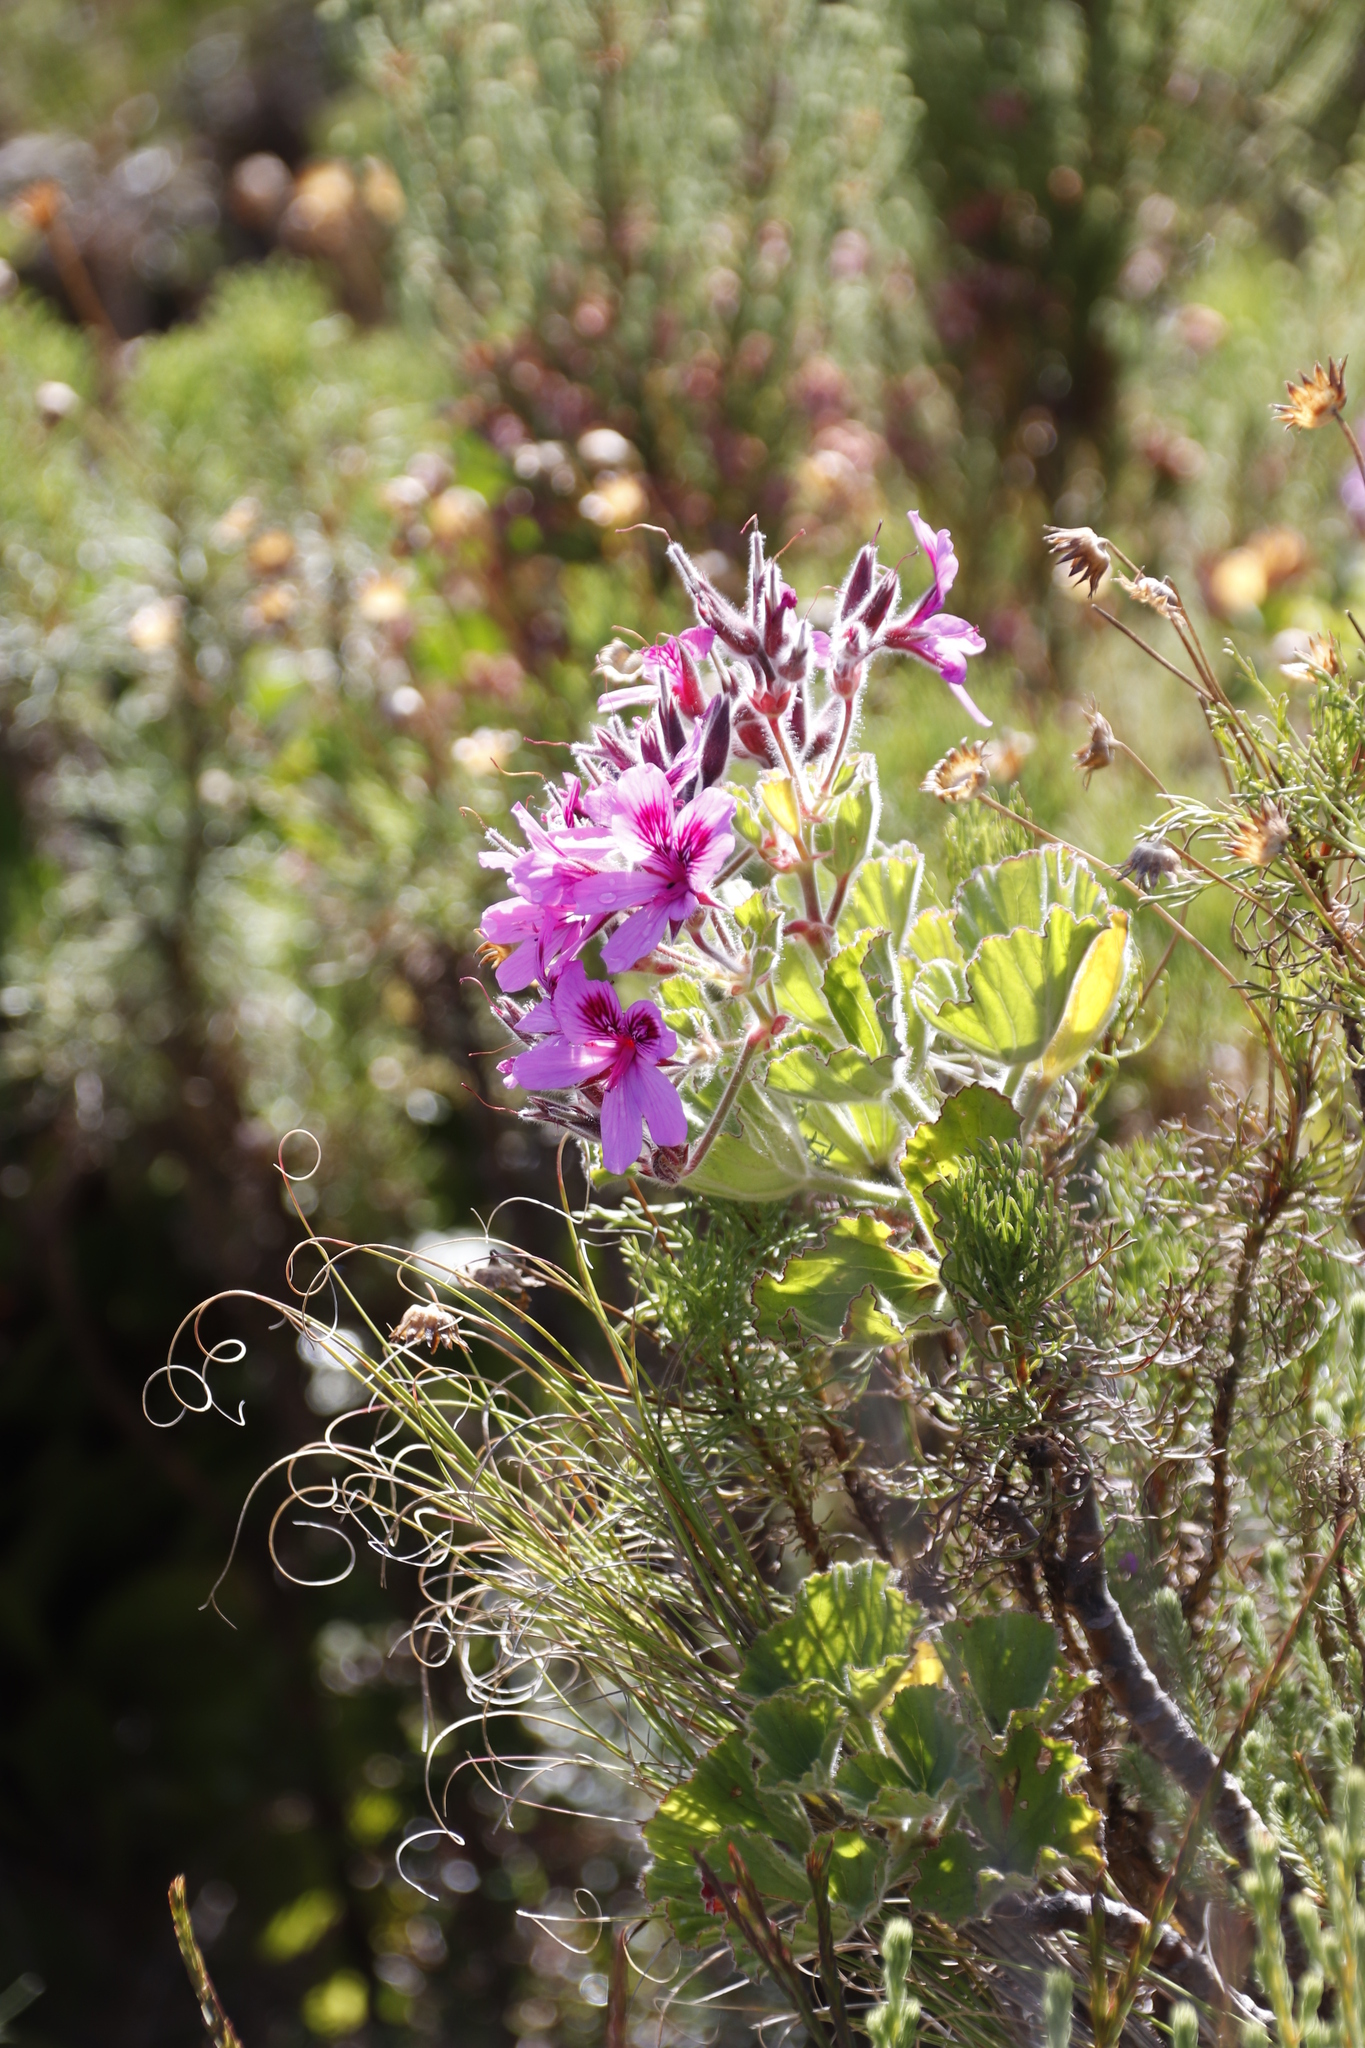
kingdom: Plantae
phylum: Tracheophyta
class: Magnoliopsida
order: Geraniales
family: Geraniaceae
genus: Pelargonium
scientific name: Pelargonium cucullatum
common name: Tree pelargonium
